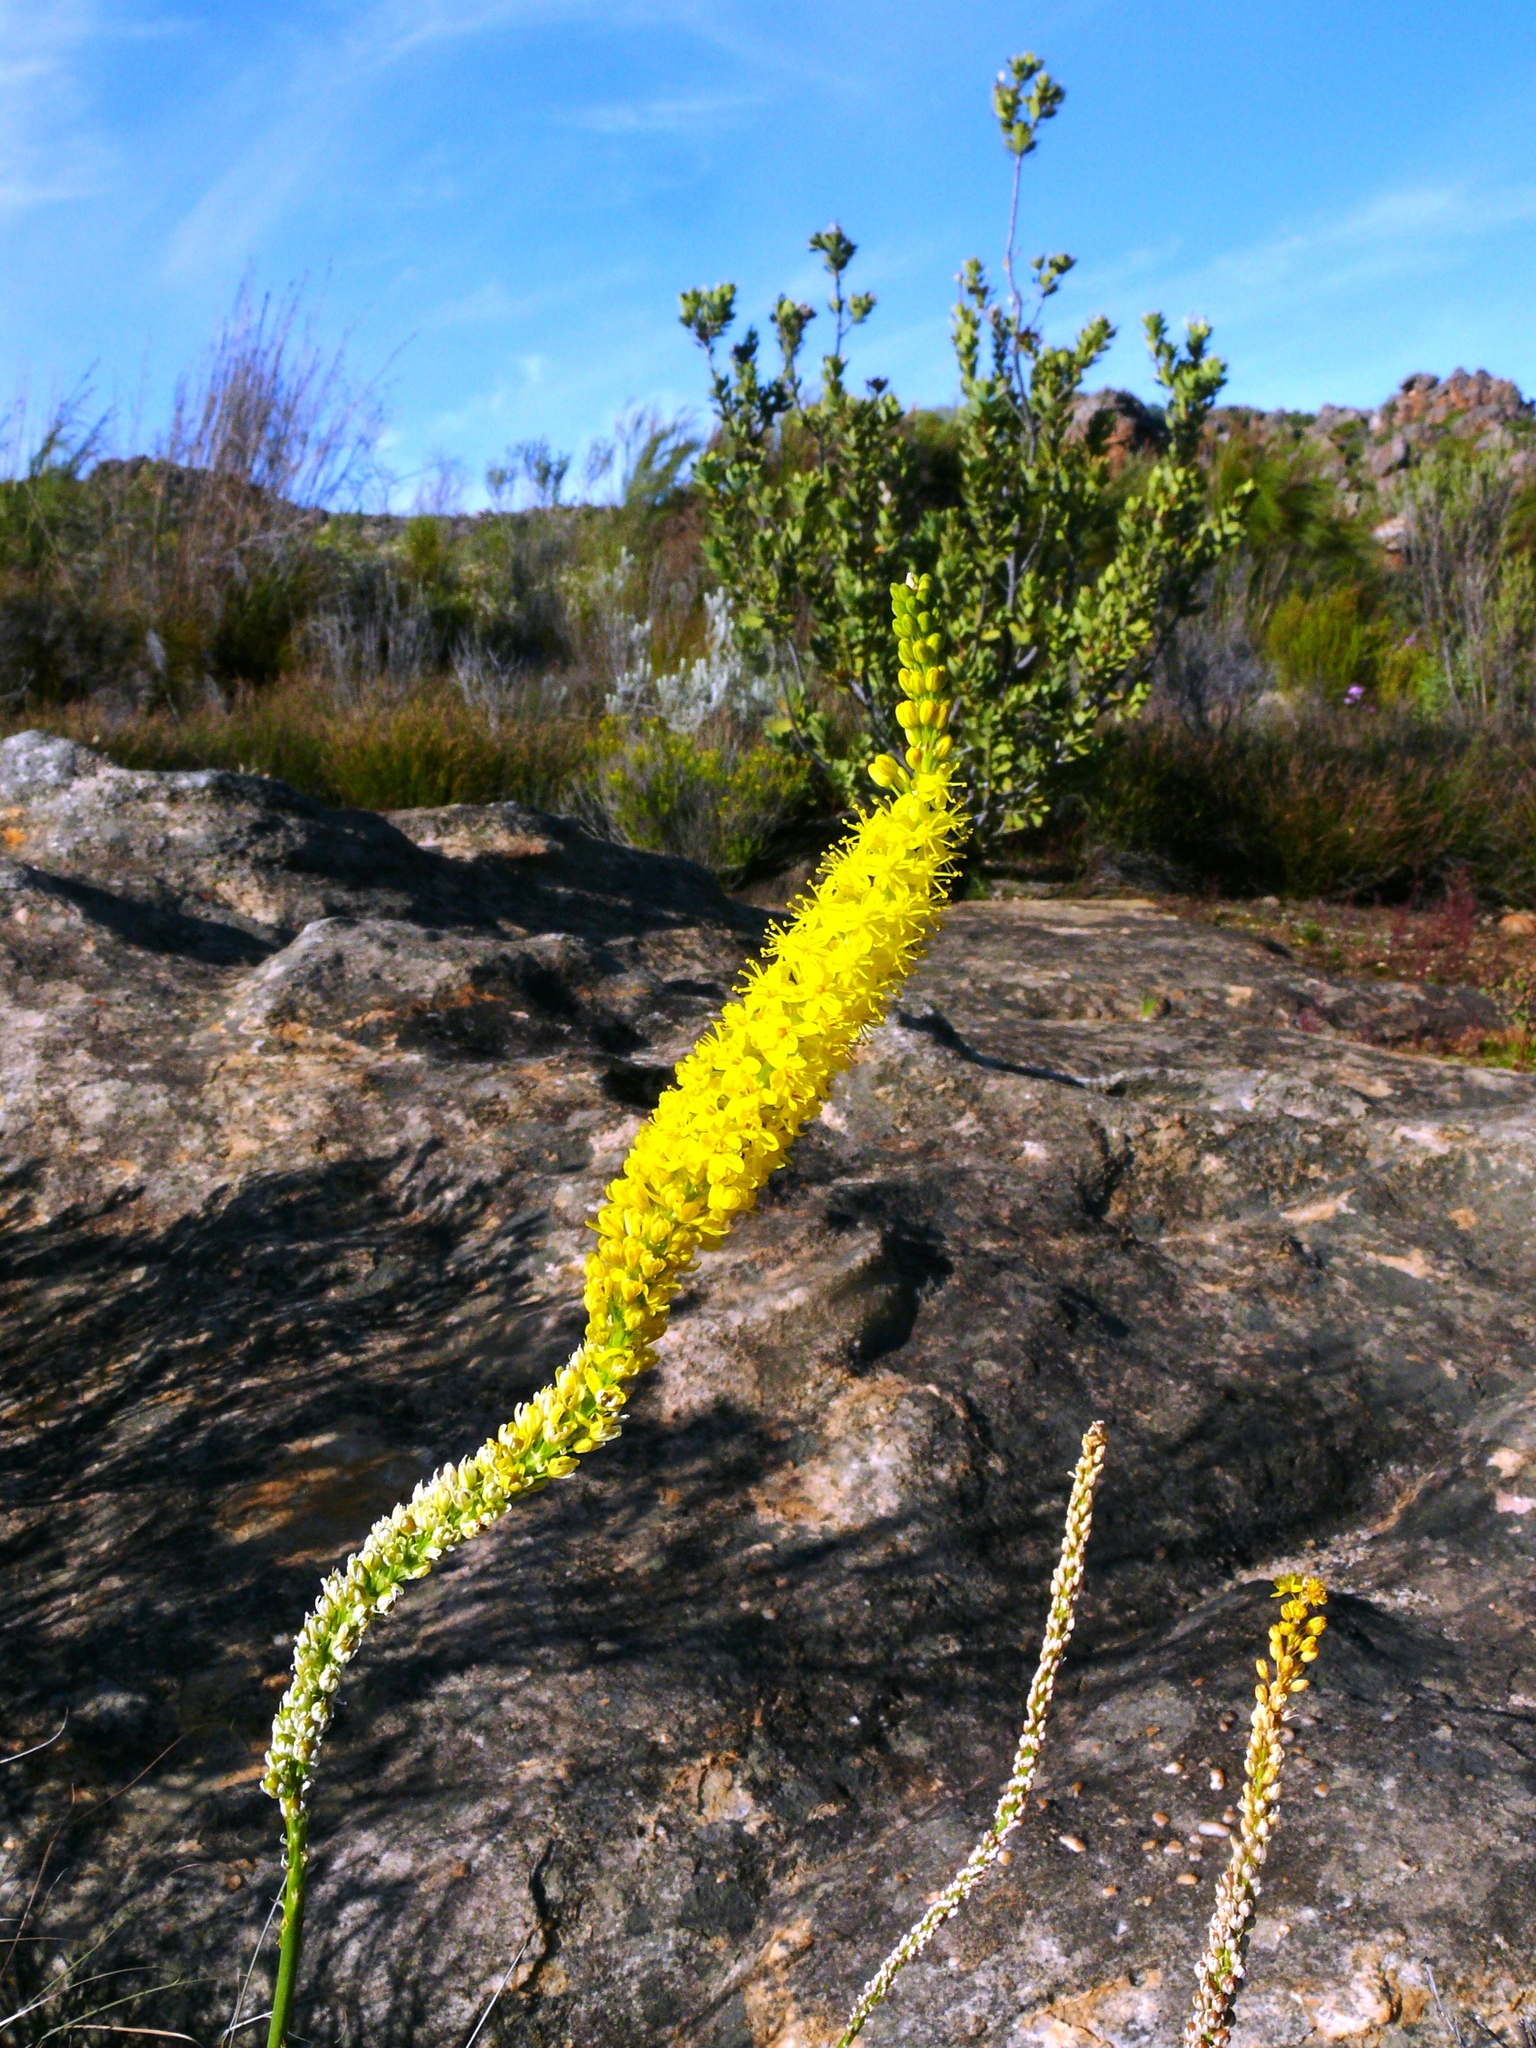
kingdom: Plantae
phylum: Tracheophyta
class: Liliopsida
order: Asparagales
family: Asphodelaceae
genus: Bulbinella
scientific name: Bulbinella punctulata
